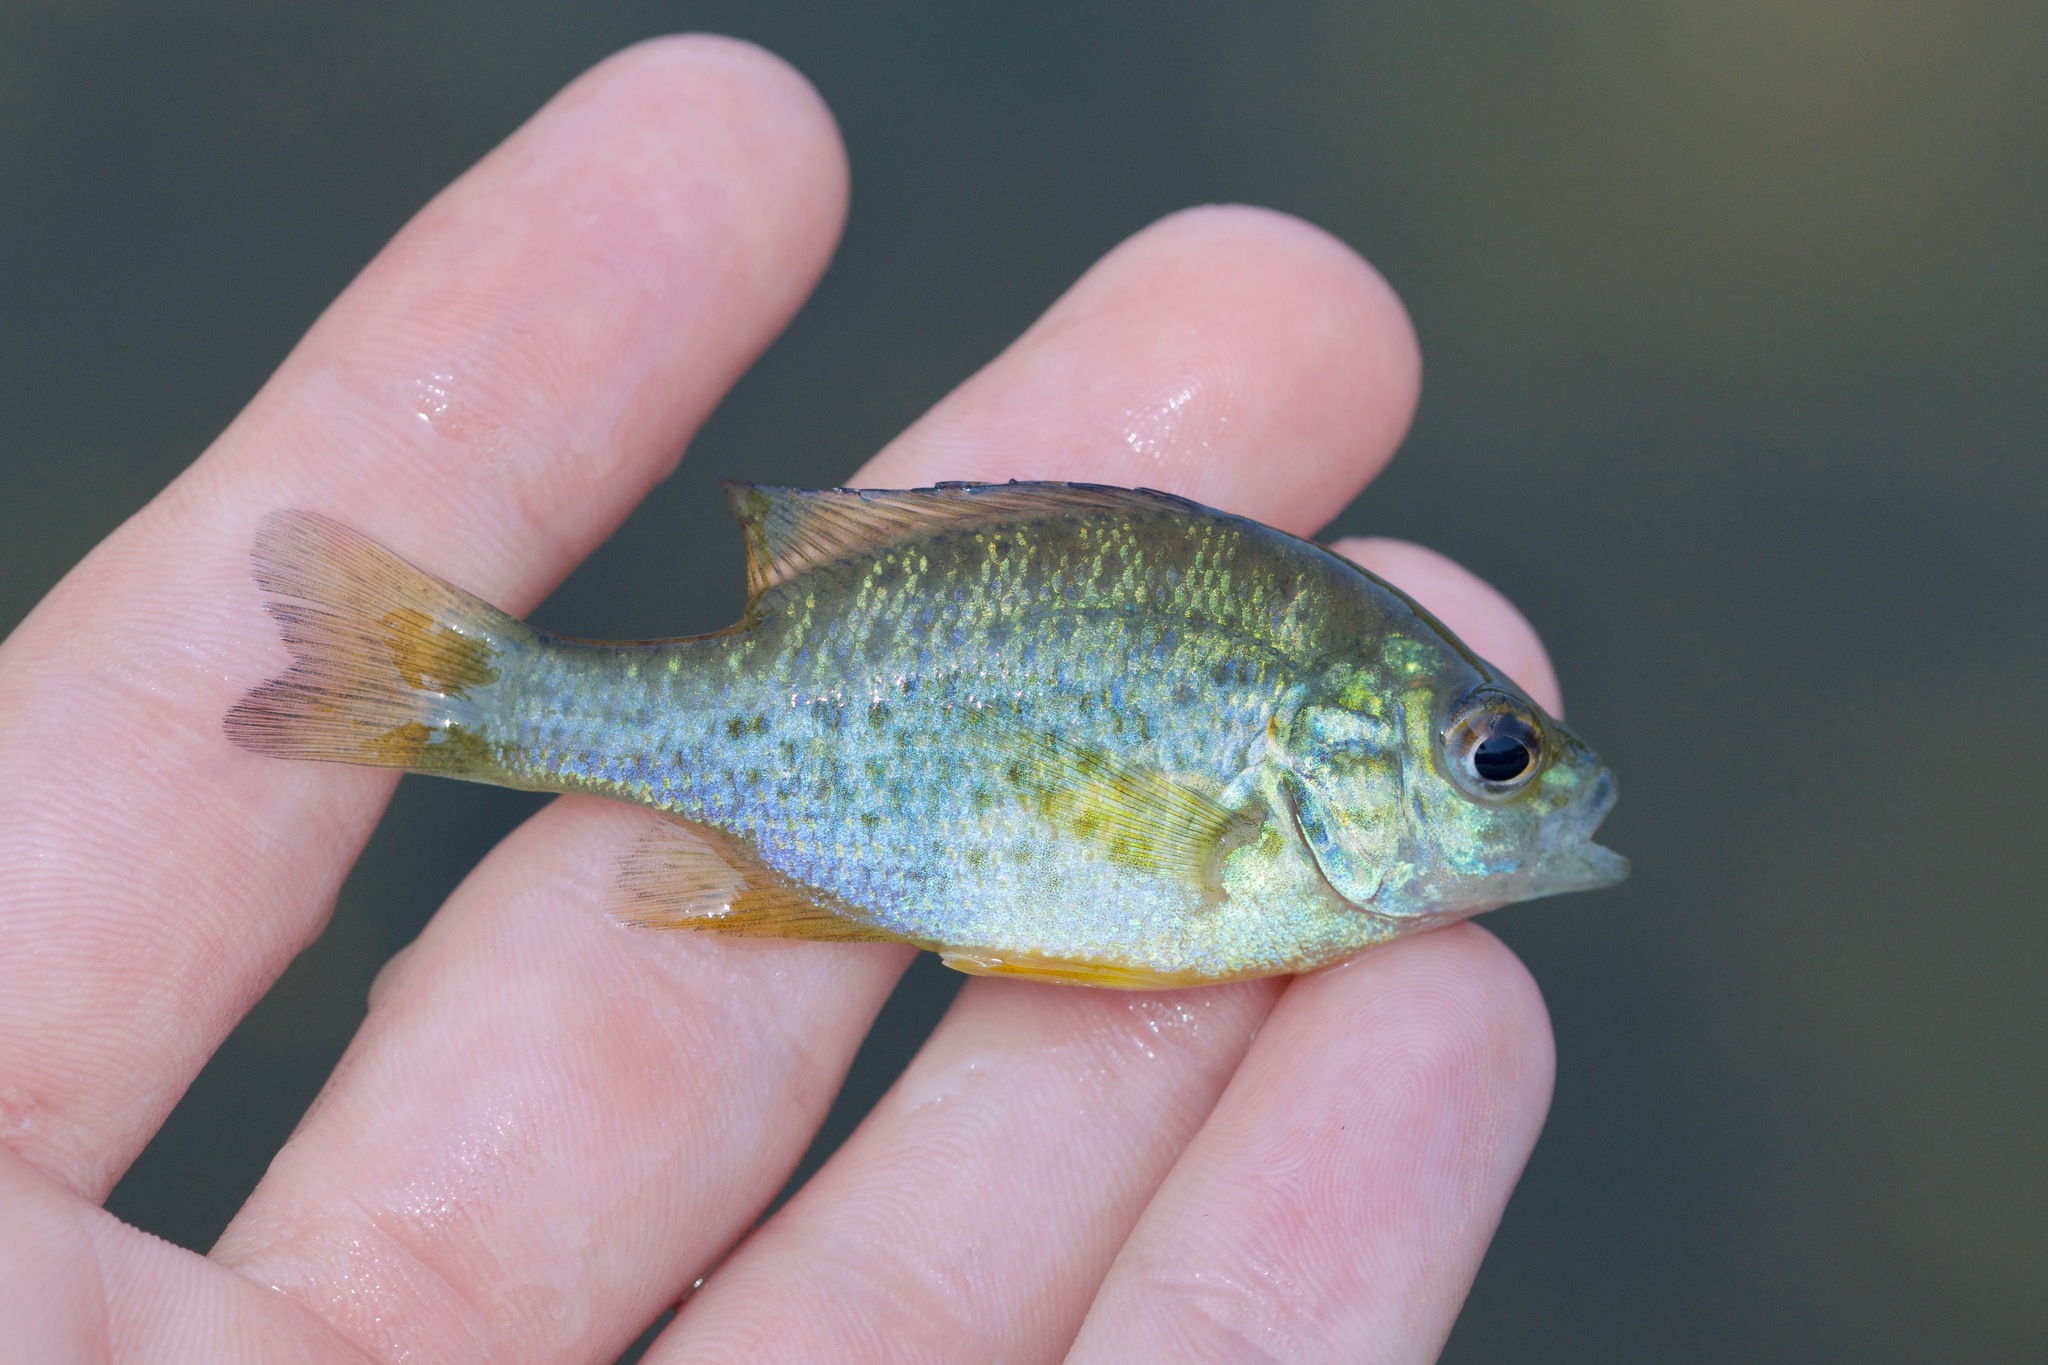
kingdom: Animalia
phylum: Chordata
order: Perciformes
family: Centrarchidae
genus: Lepomis
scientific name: Lepomis gibbosus
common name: Pumpkinseed
